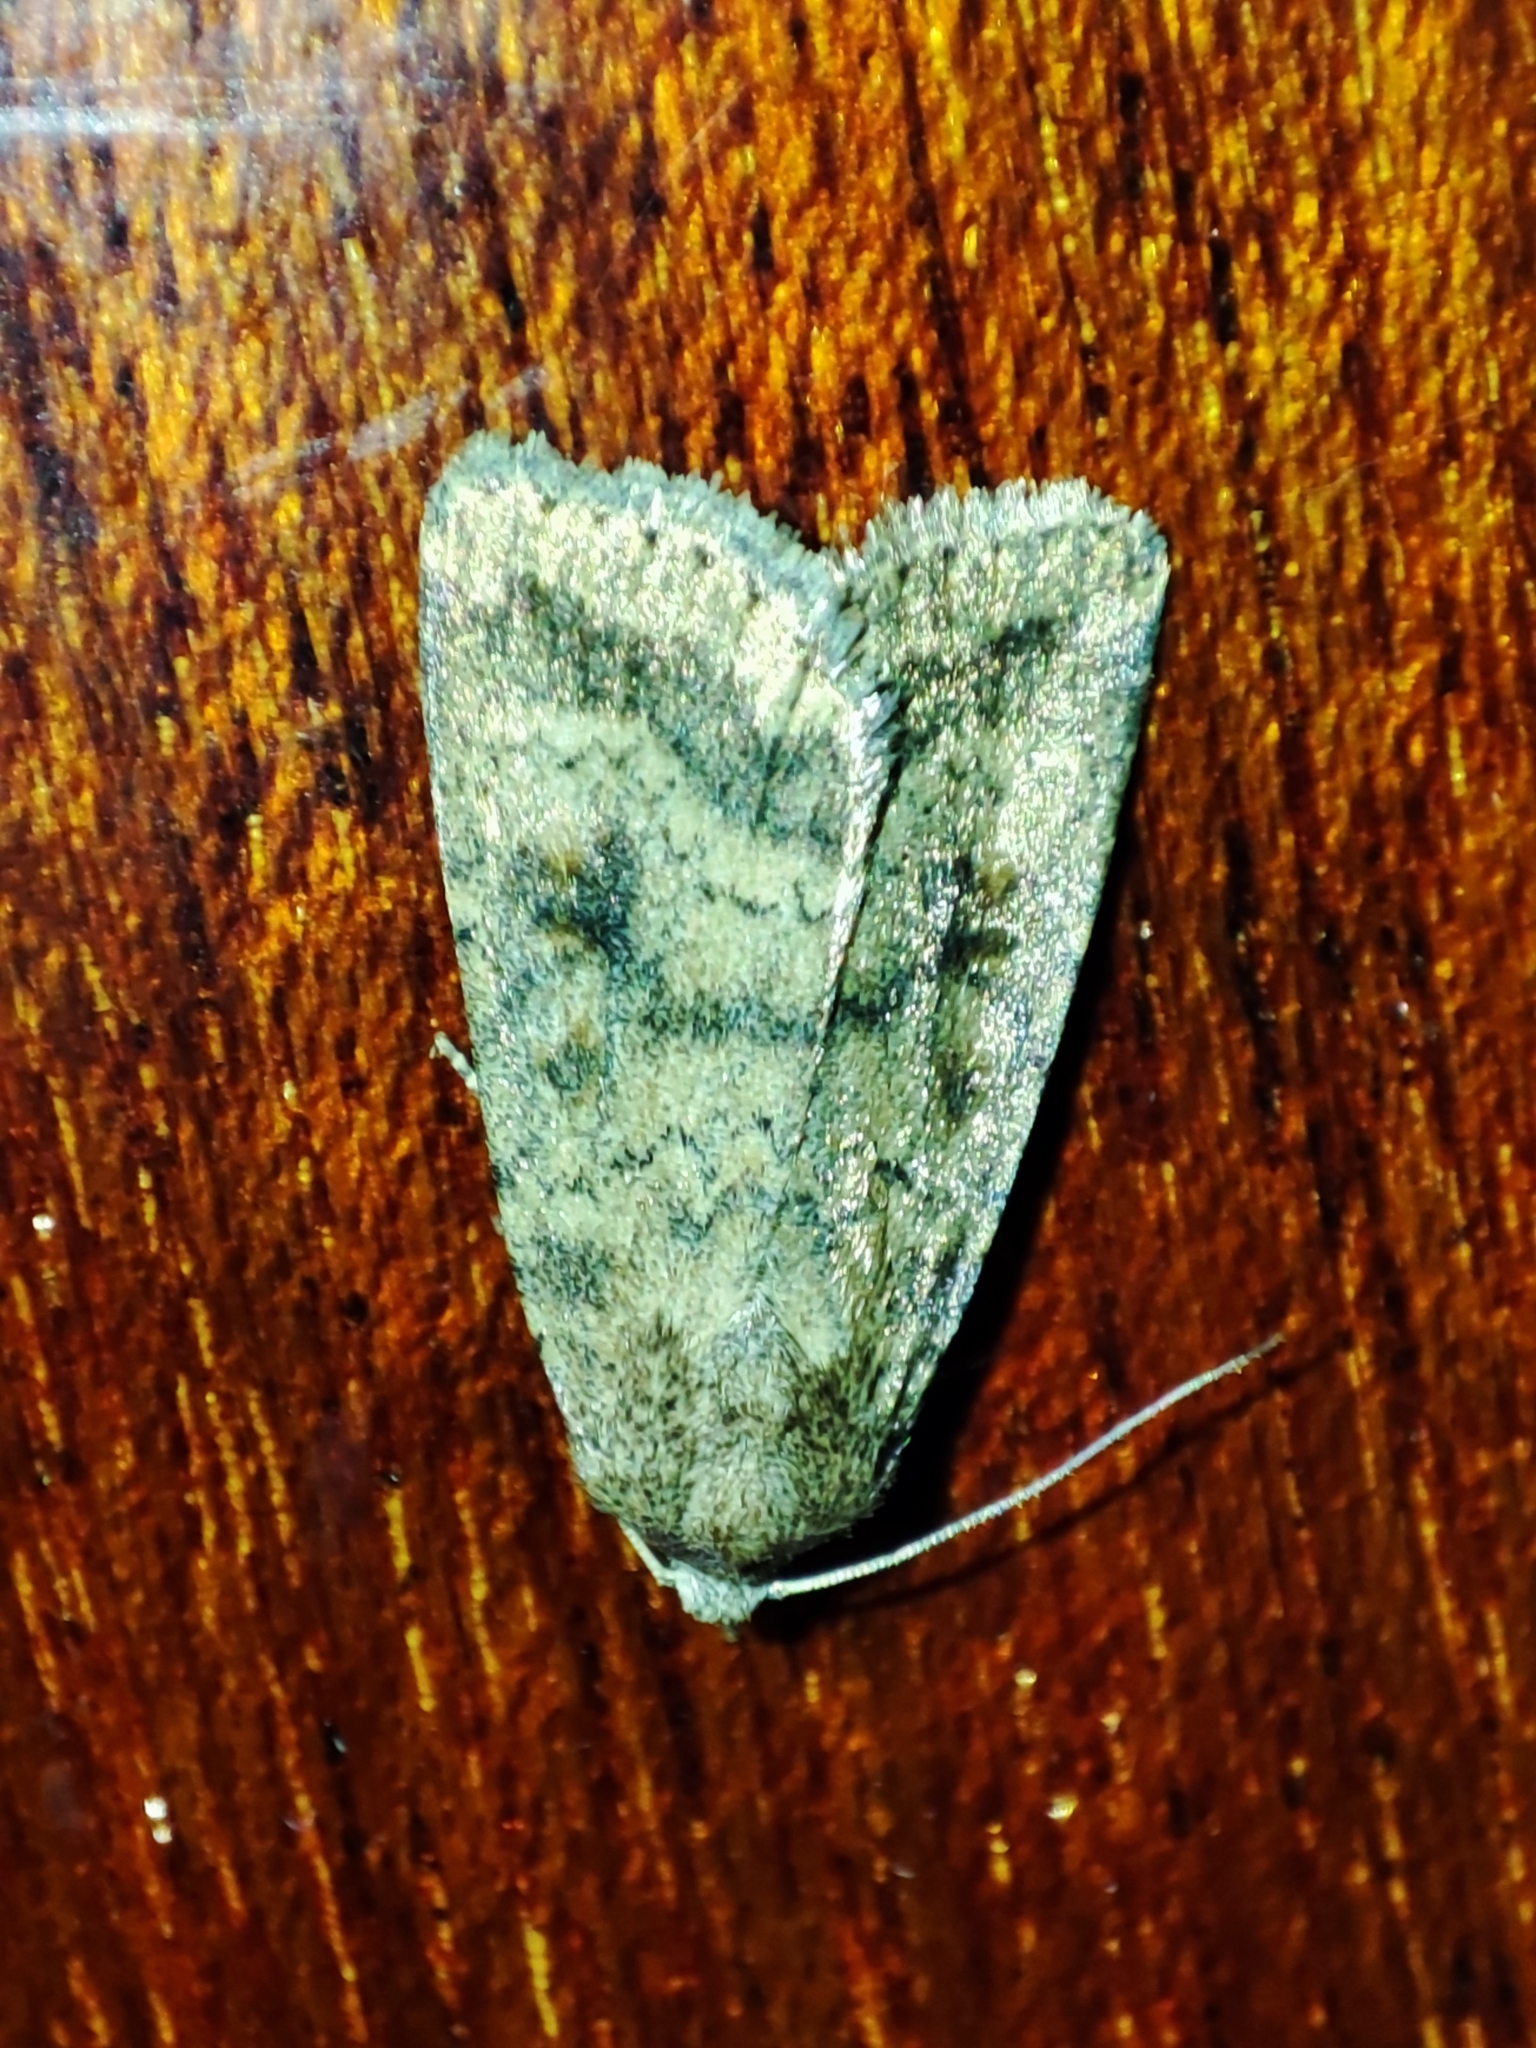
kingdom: Animalia
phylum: Arthropoda
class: Insecta
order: Lepidoptera
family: Noctuidae
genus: Caradrina
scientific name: Caradrina morpheus
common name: Mottled rustic
